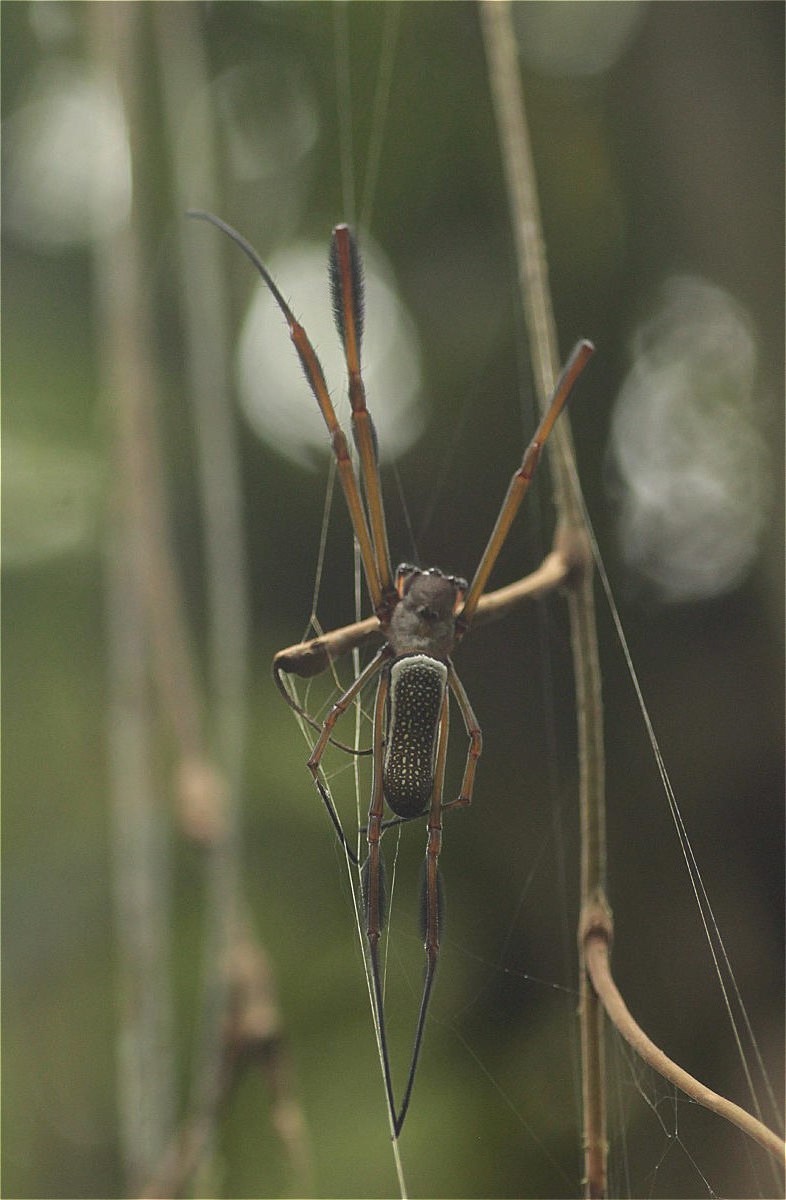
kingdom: Animalia
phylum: Arthropoda
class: Arachnida
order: Araneae
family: Araneidae
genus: Trichonephila
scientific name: Trichonephila clavipes
